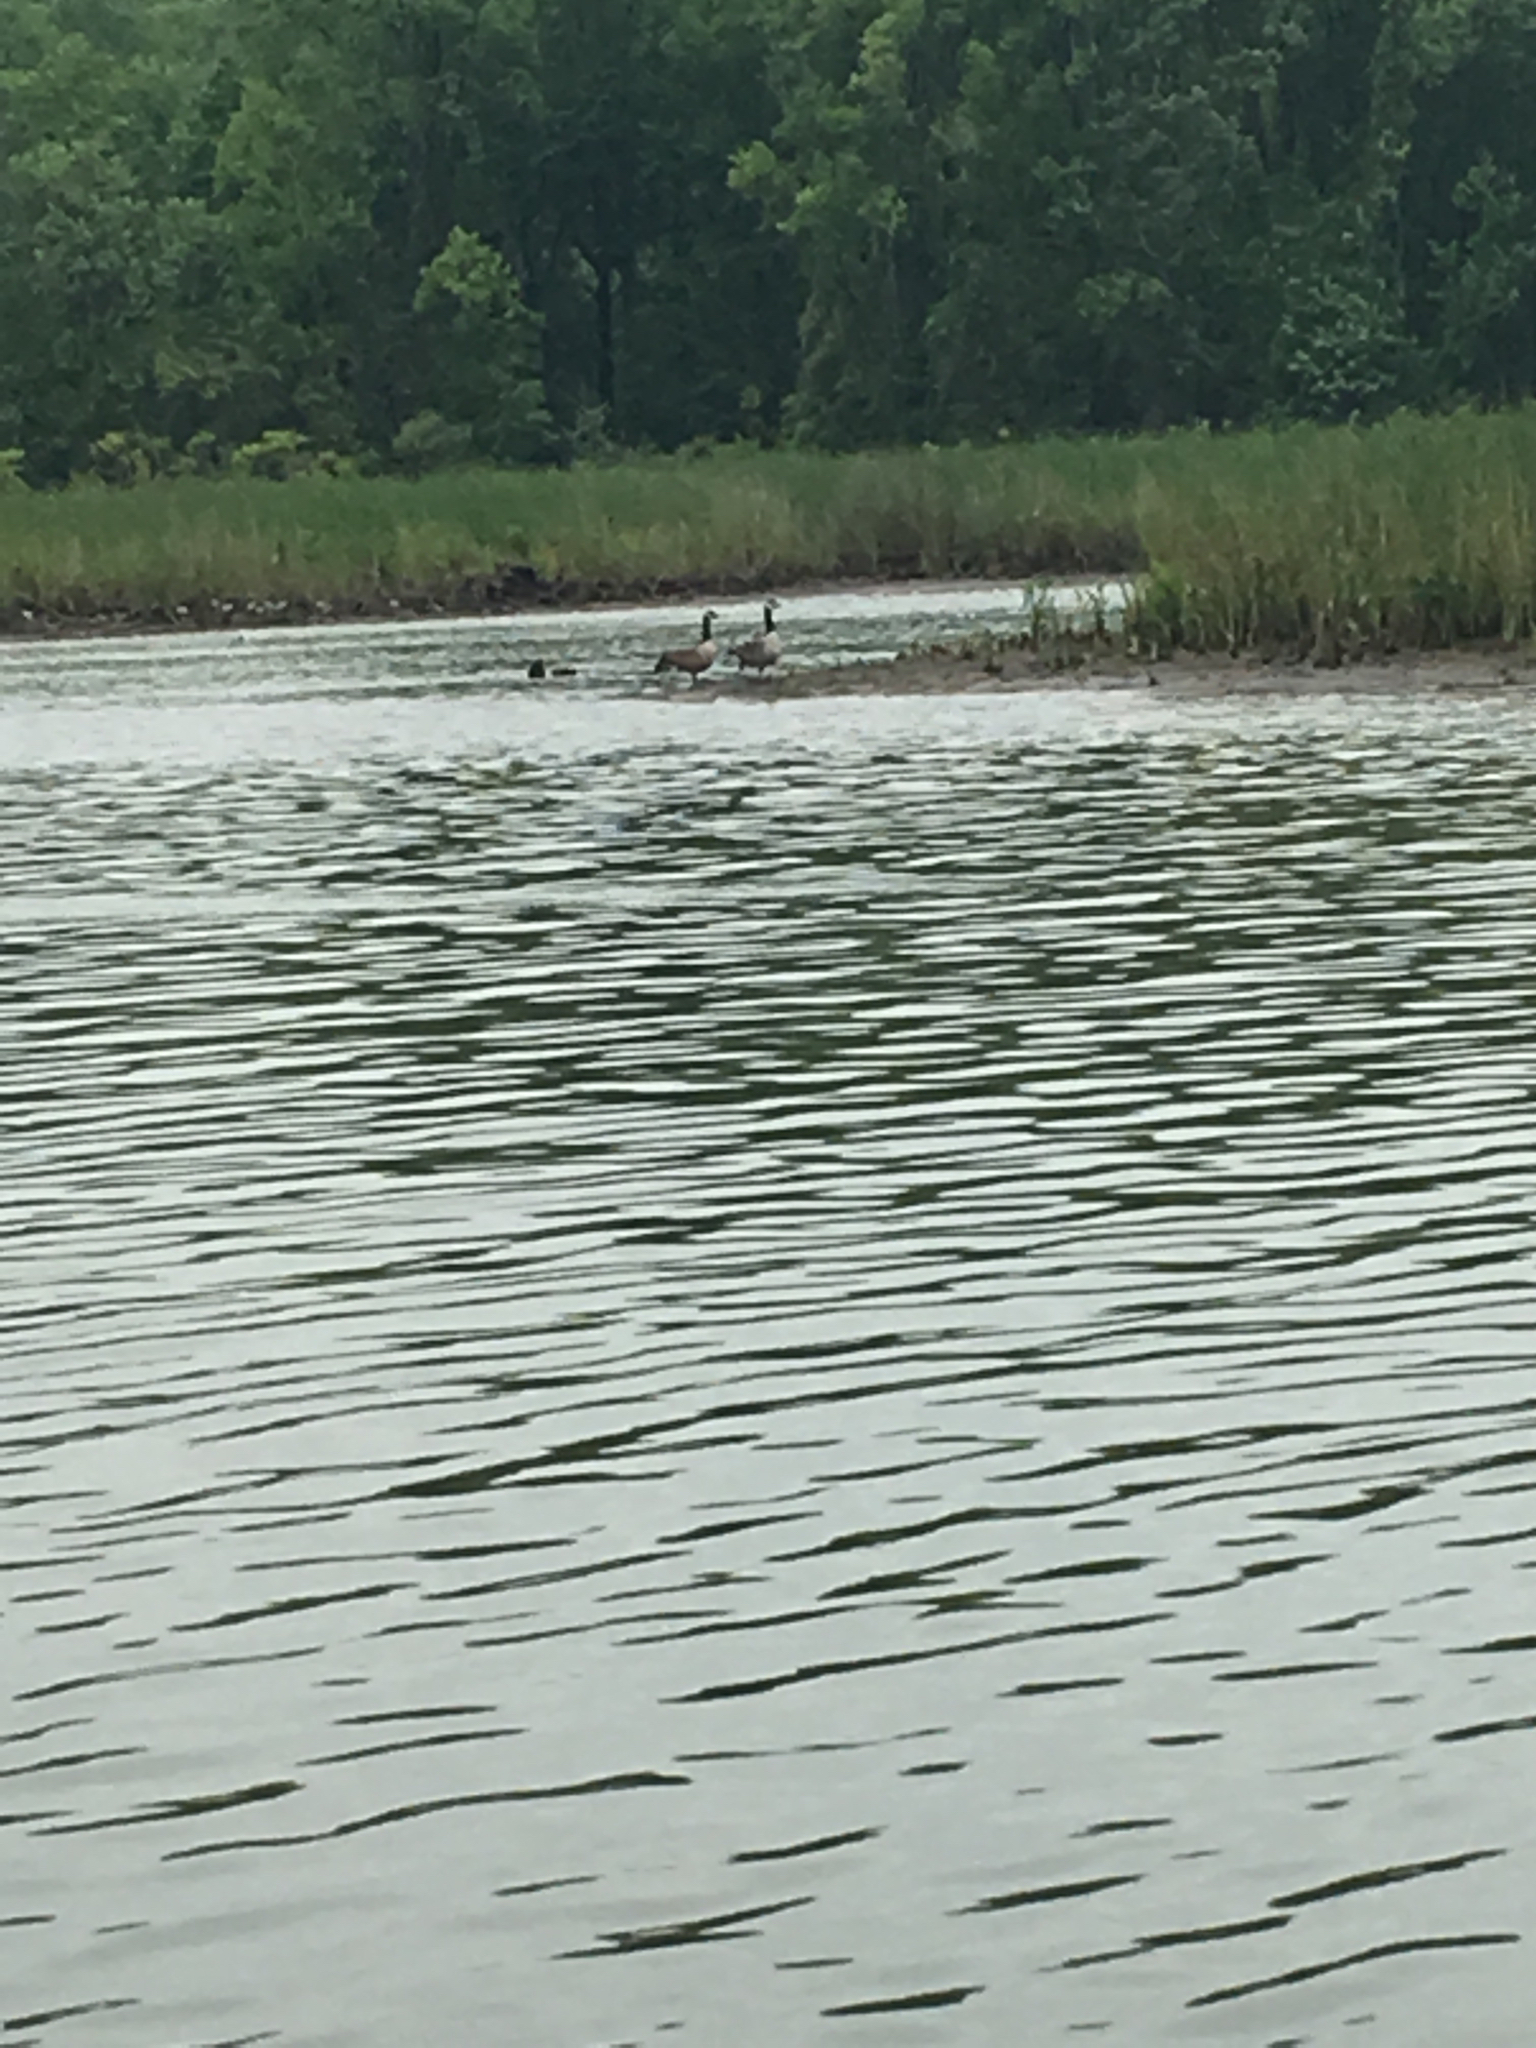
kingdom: Animalia
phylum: Chordata
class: Aves
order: Anseriformes
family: Anatidae
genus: Branta
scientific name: Branta canadensis
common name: Canada goose
